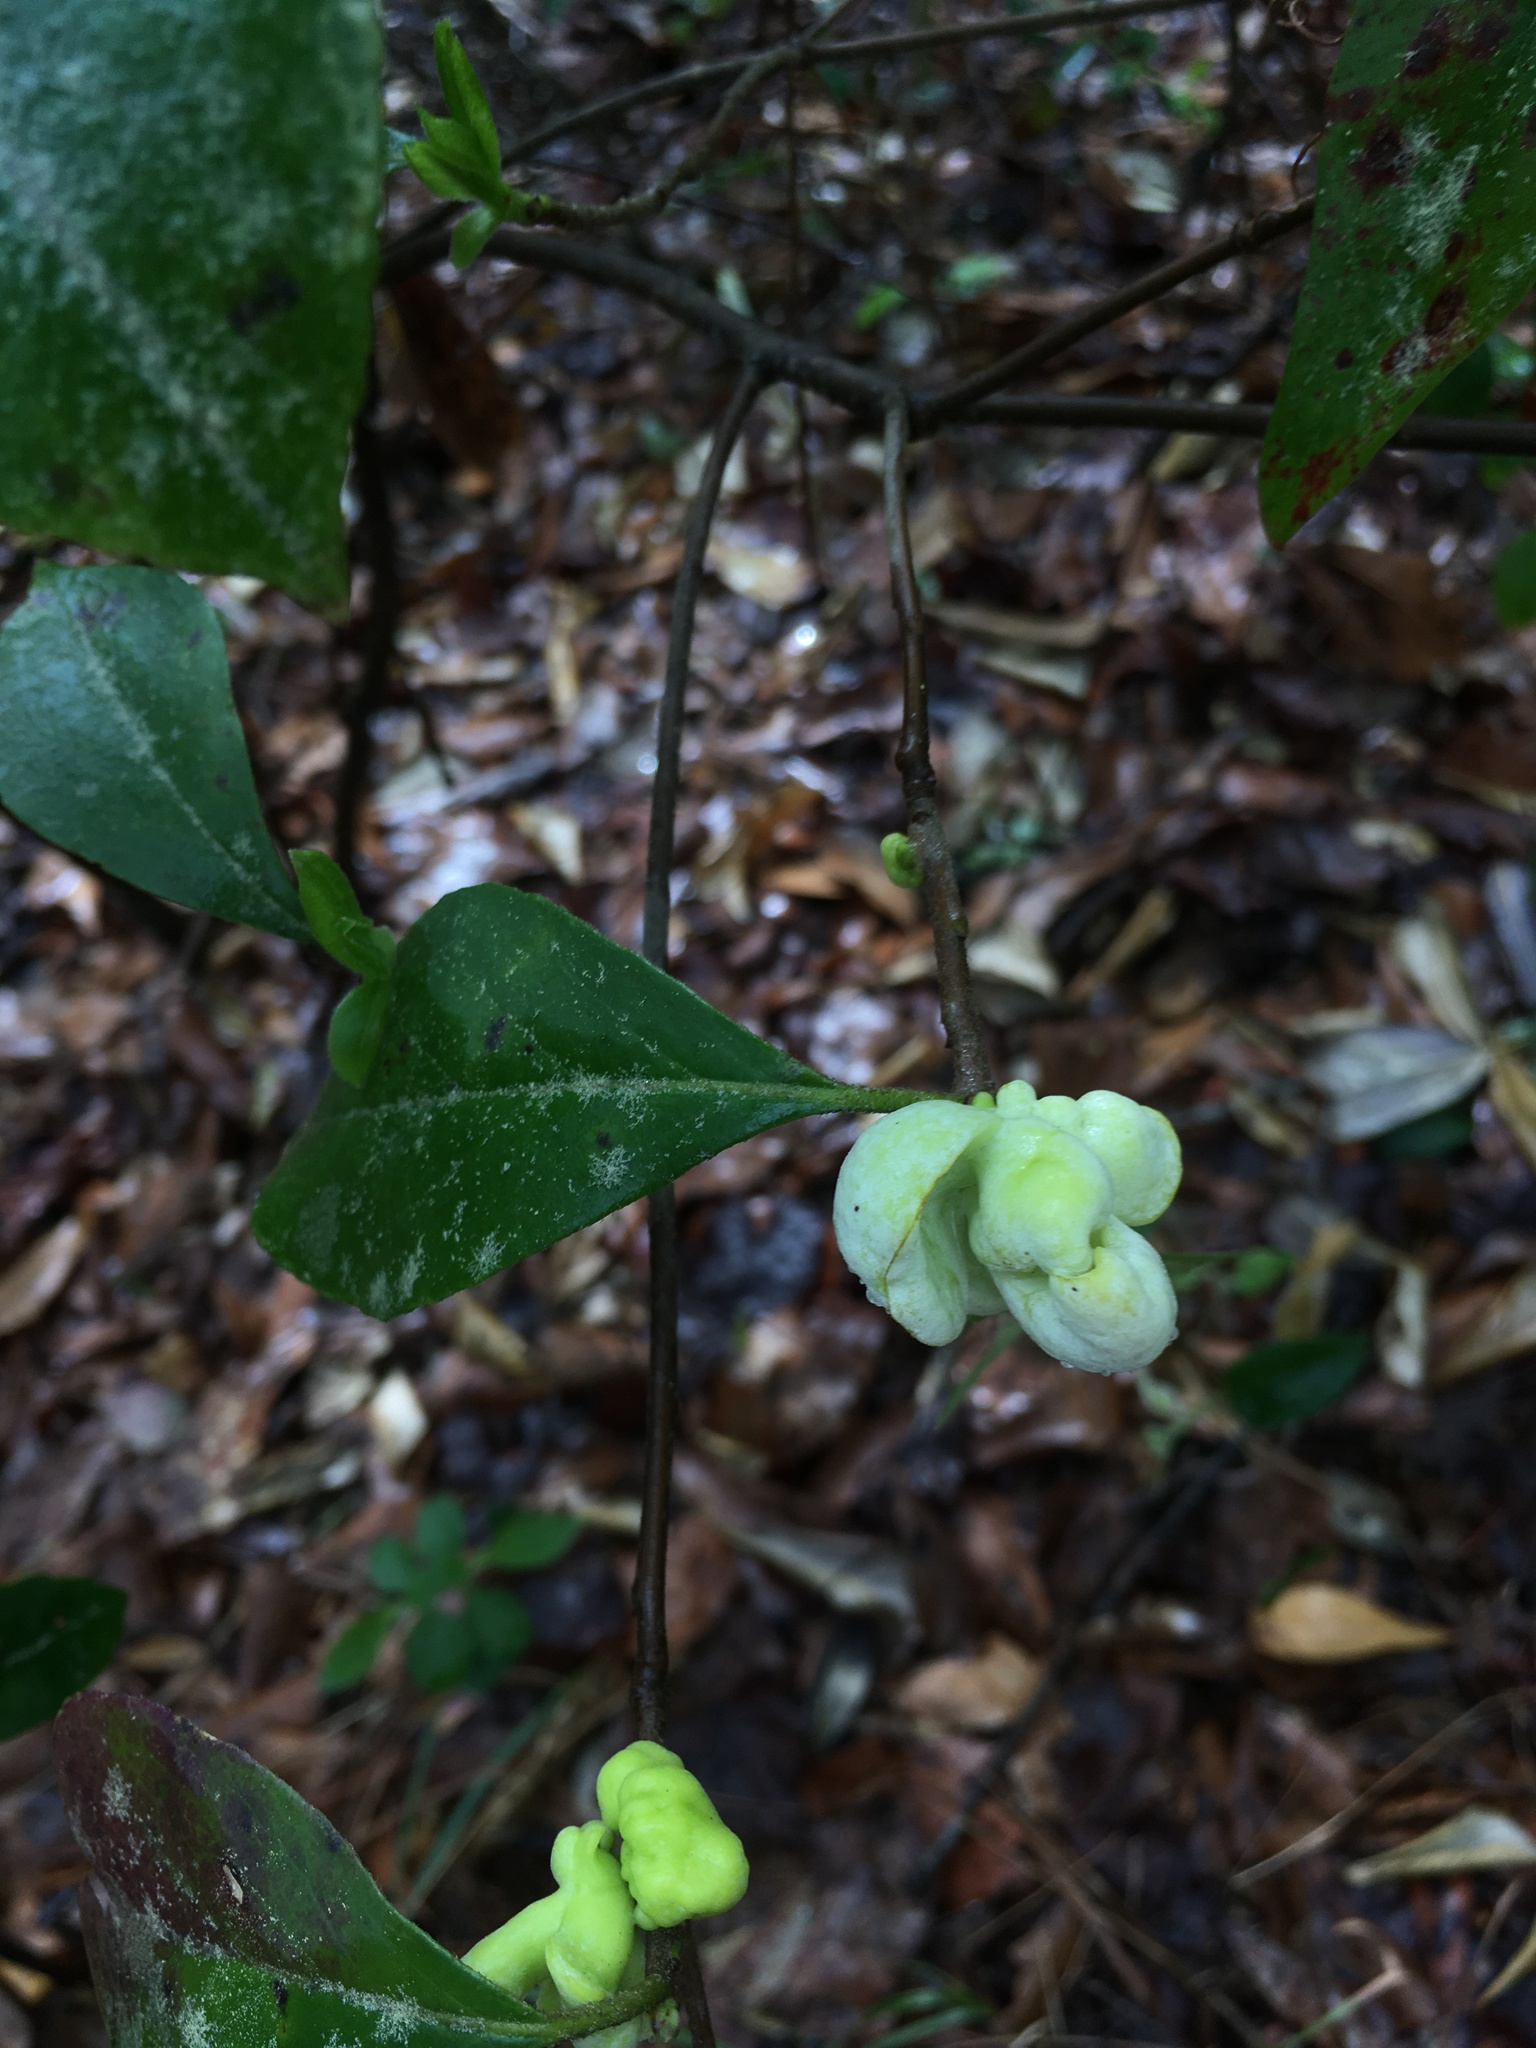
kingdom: Fungi
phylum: Basidiomycota
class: Exobasidiomycetes
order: Exobasidiales
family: Exobasidiaceae
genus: Exobasidium
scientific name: Exobasidium symploci
